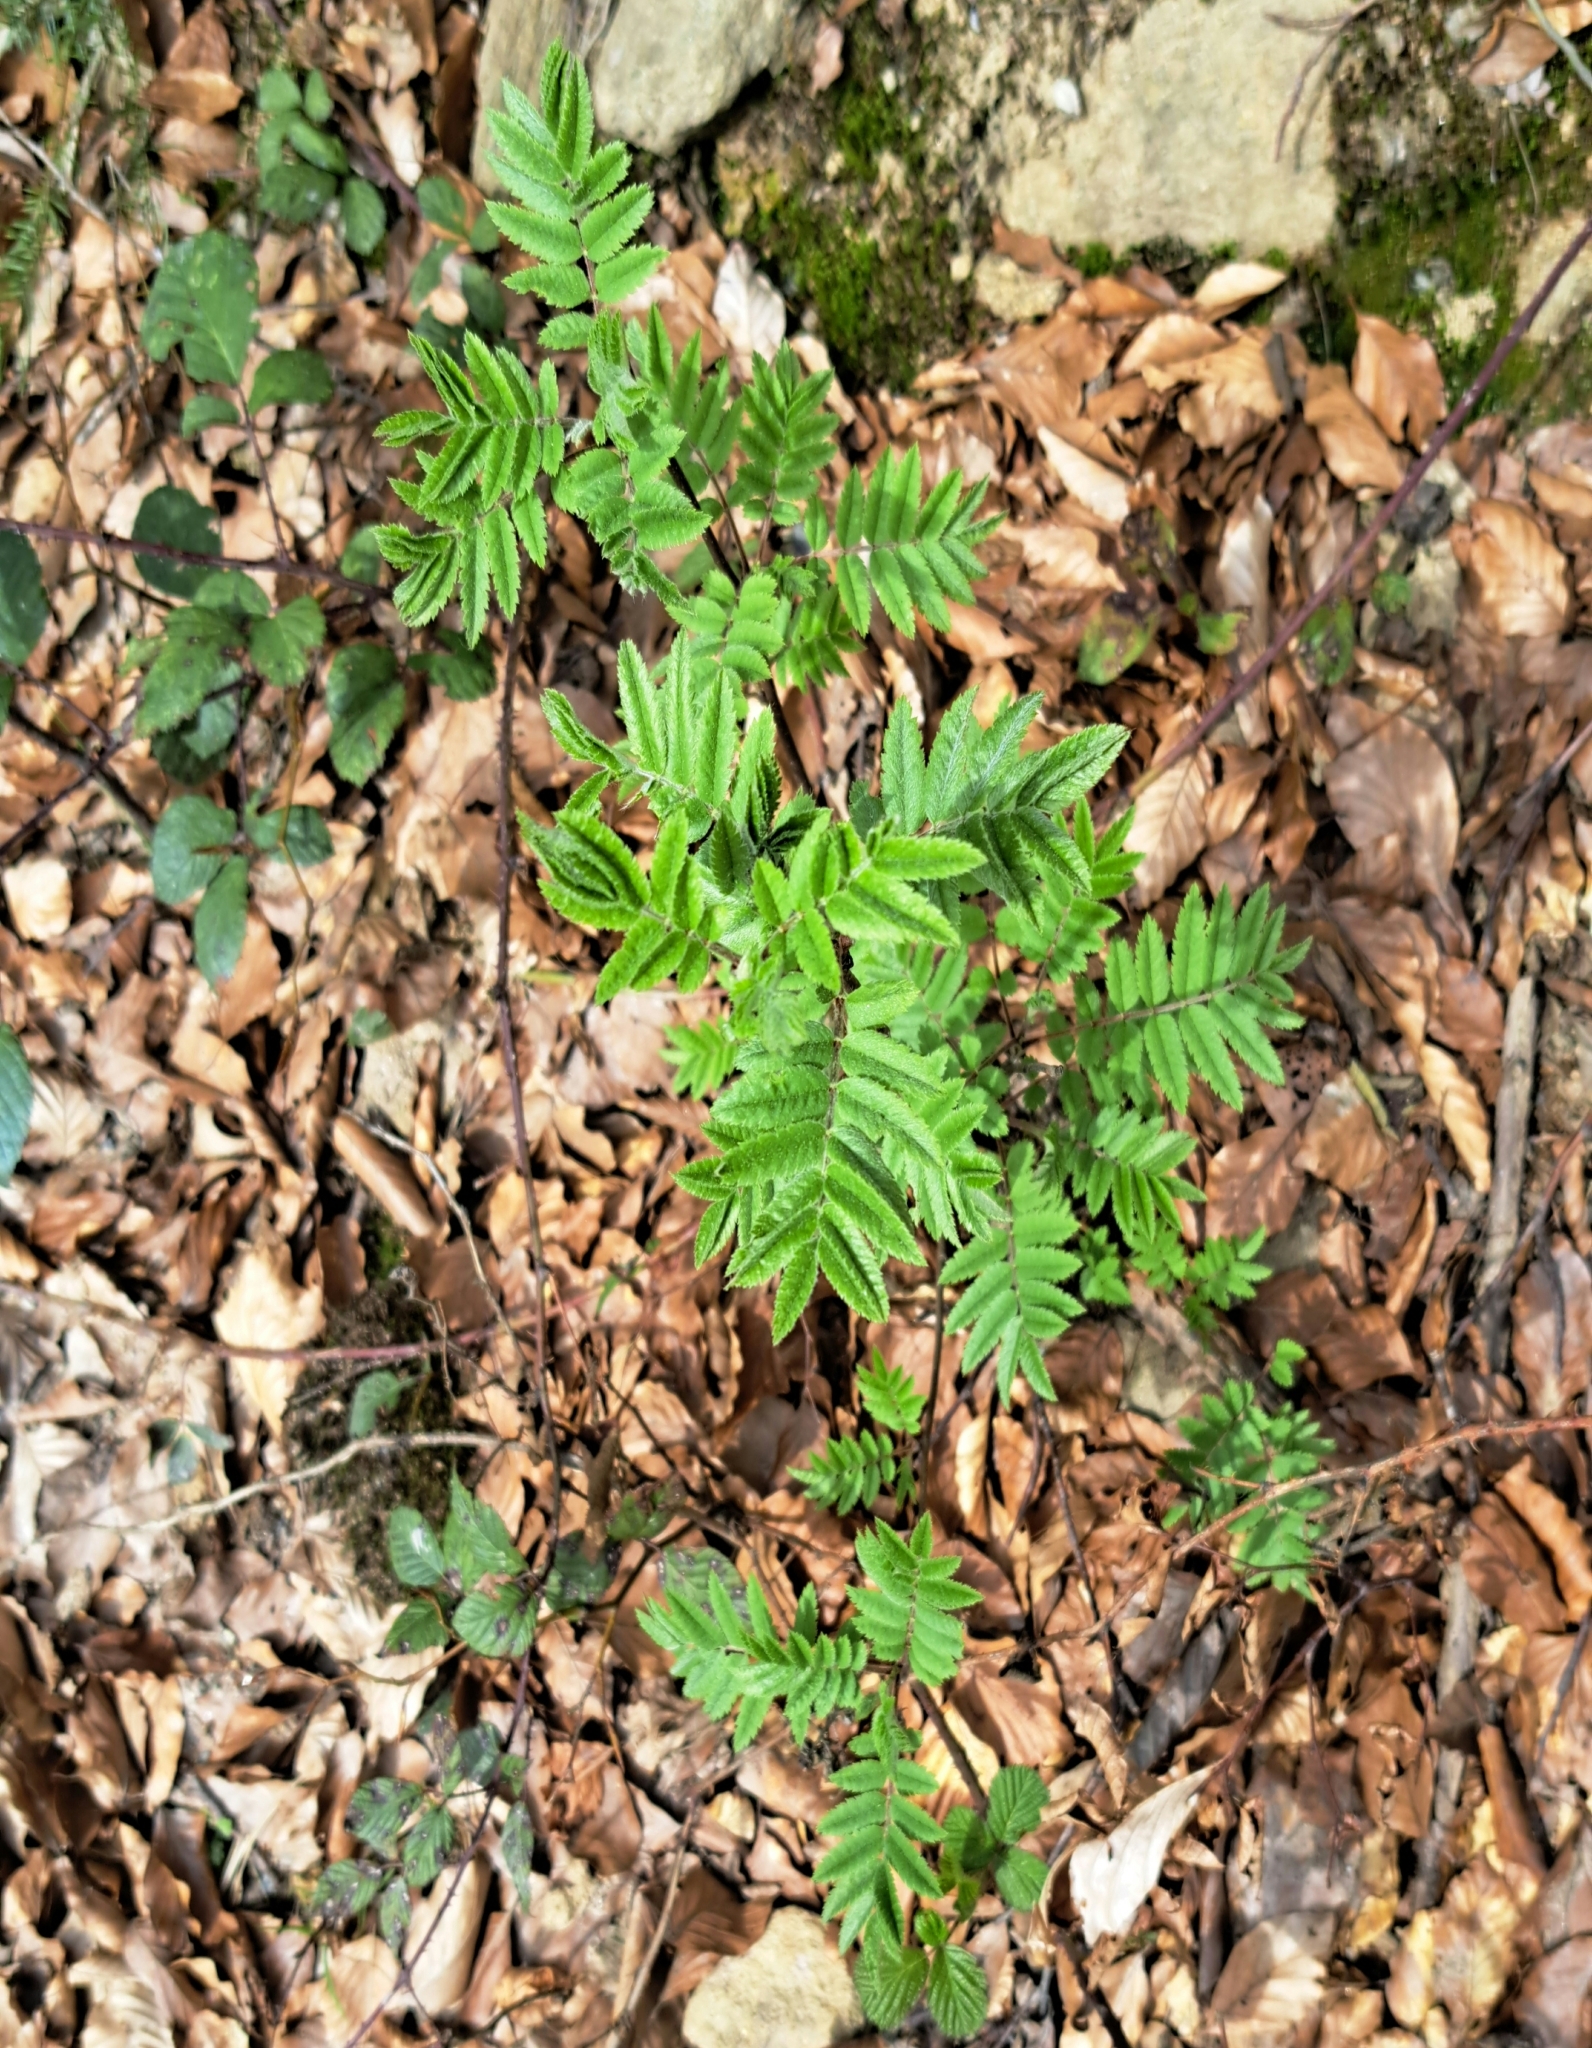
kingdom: Plantae
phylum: Tracheophyta
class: Magnoliopsida
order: Rosales
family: Rosaceae
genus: Sorbus
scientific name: Sorbus aucuparia
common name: Rowan
